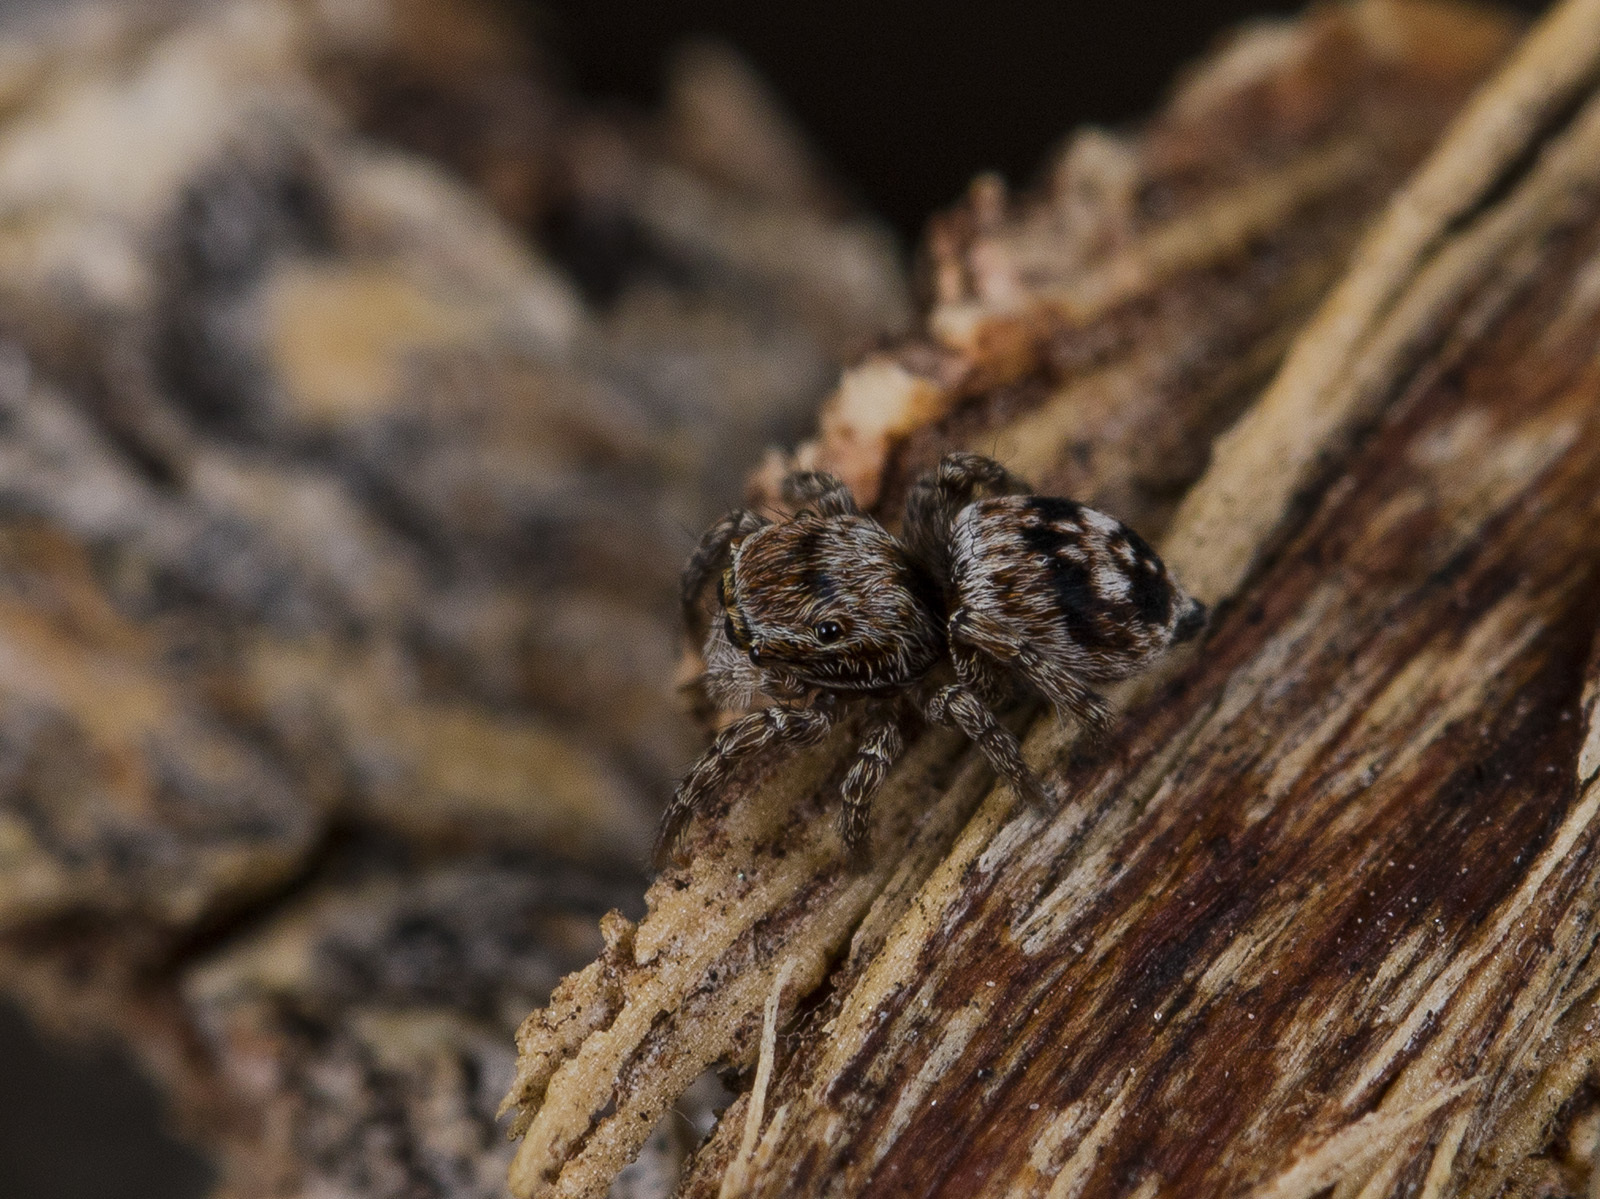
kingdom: Animalia
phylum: Arthropoda
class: Arachnida
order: Araneae
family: Salticidae
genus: Attulus
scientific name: Attulus mirandus
